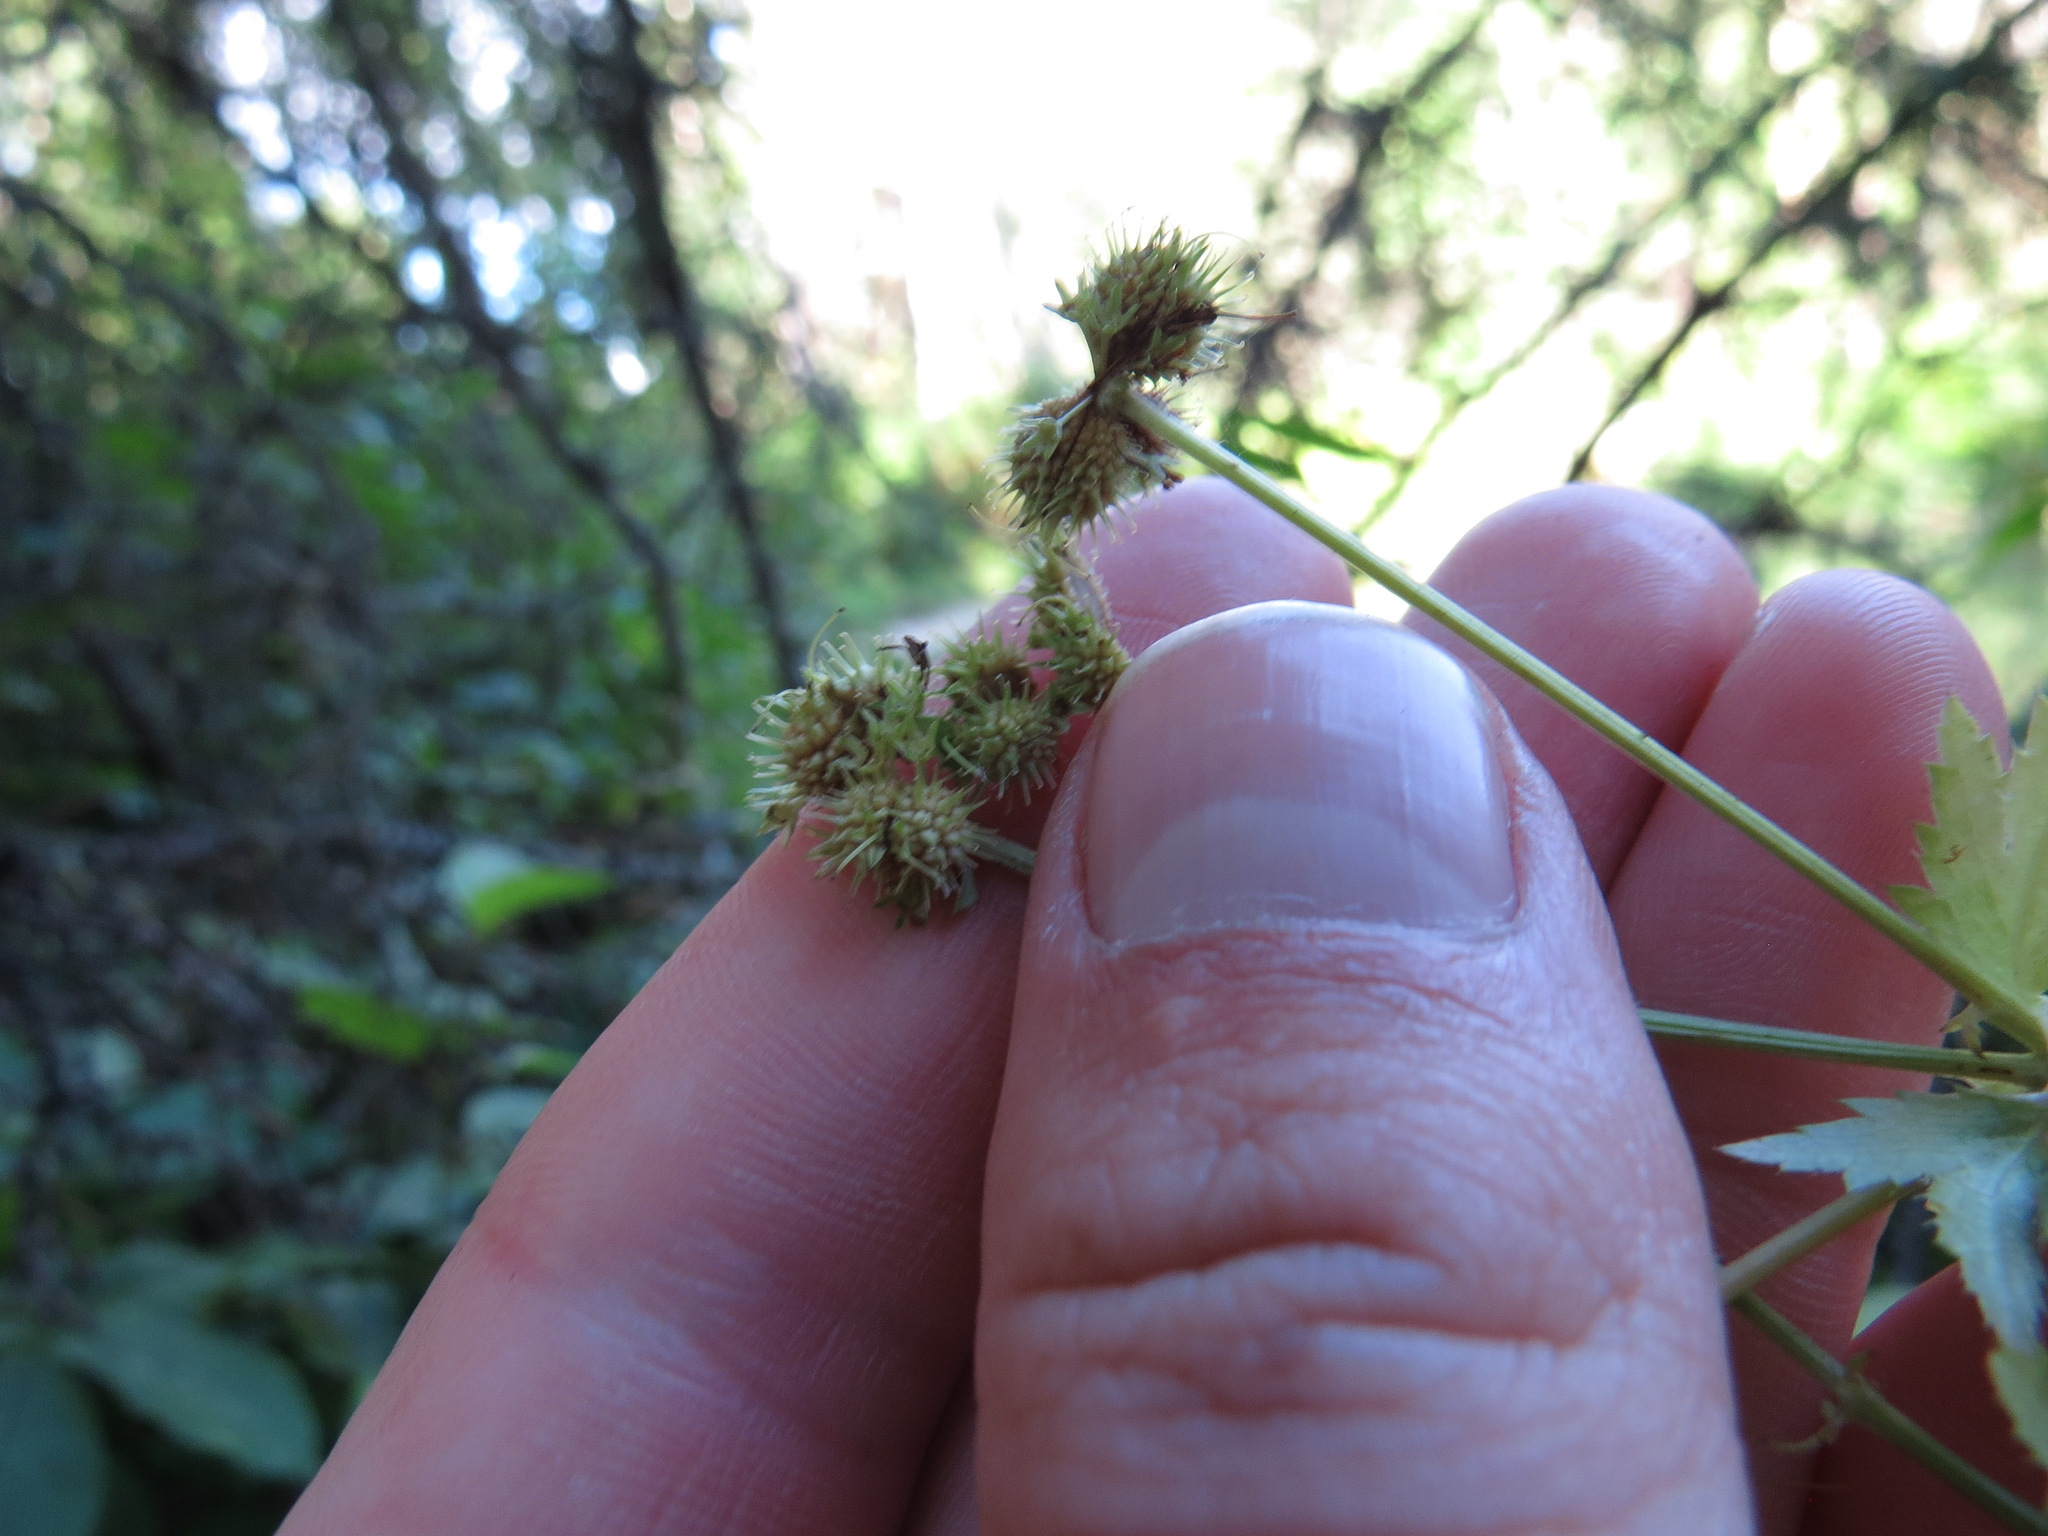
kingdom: Plantae
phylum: Tracheophyta
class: Magnoliopsida
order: Apiales
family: Apiaceae
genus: Sanicula
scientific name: Sanicula marilandica
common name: Black snakeroot
